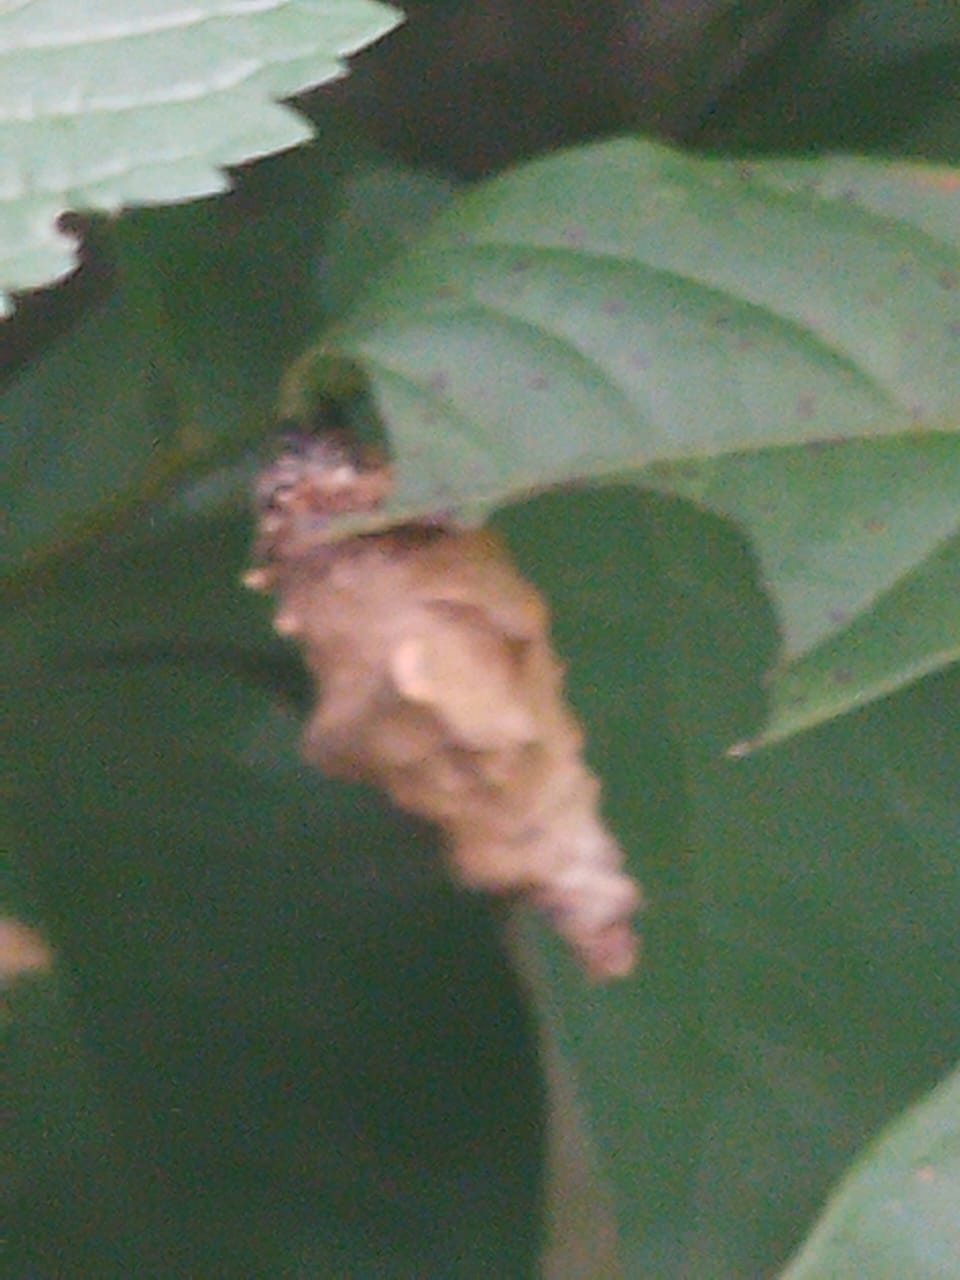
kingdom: Animalia
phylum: Arthropoda
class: Insecta
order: Lepidoptera
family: Nymphalidae
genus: Dryas
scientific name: Dryas iulia
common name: Flambeau
